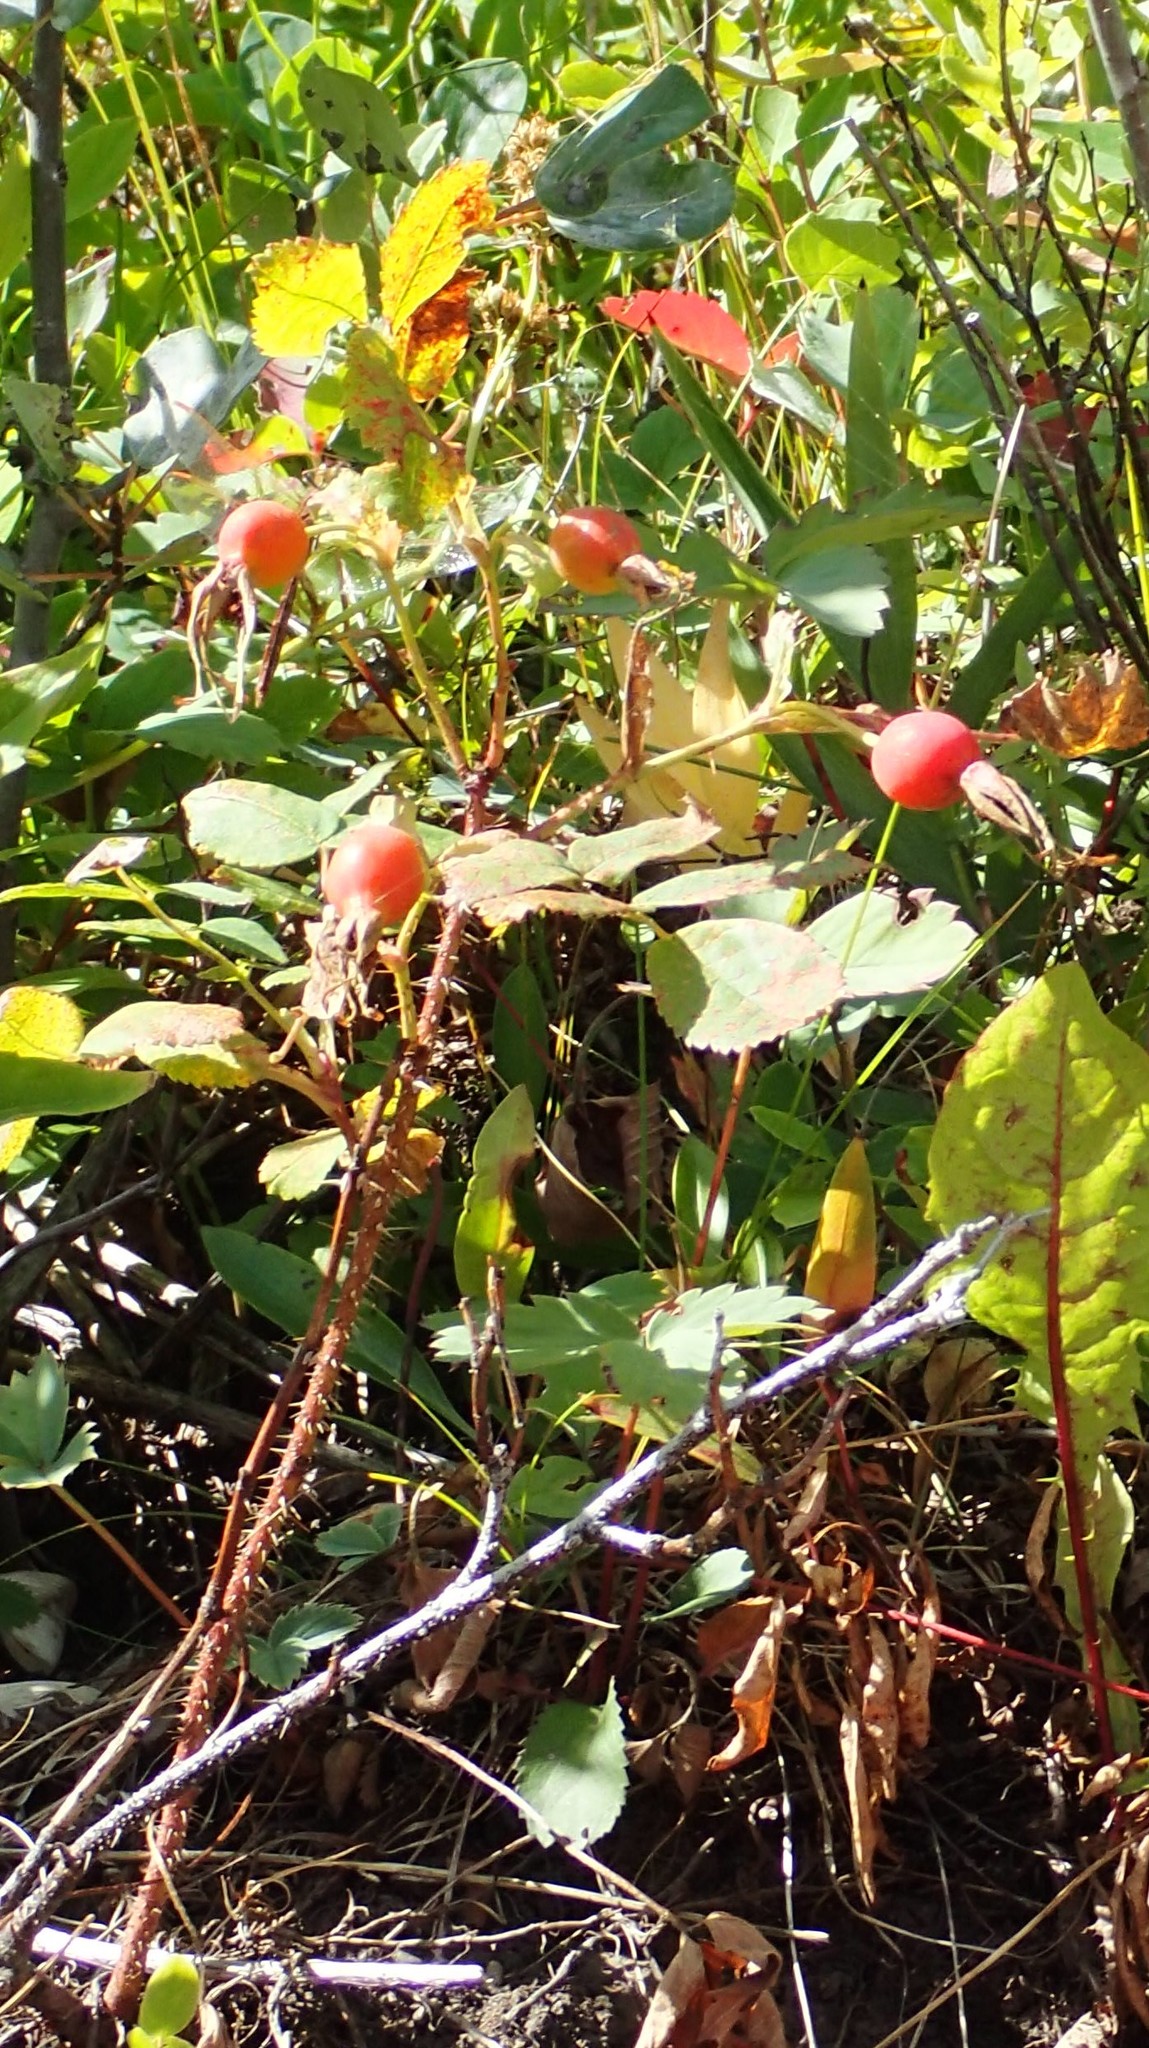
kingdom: Plantae
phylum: Tracheophyta
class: Magnoliopsida
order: Rosales
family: Rosaceae
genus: Rosa
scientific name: Rosa acicularis
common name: Prickly rose
